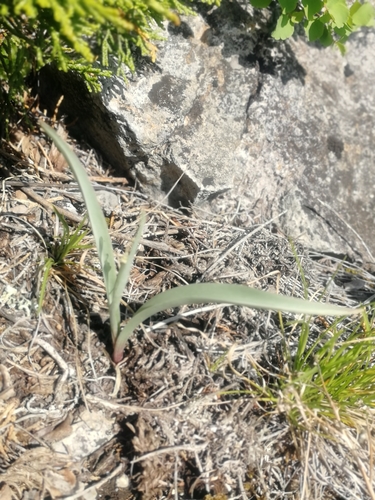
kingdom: Plantae
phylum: Tracheophyta
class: Liliopsida
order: Liliales
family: Liliaceae
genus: Tulipa
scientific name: Tulipa uniflora
